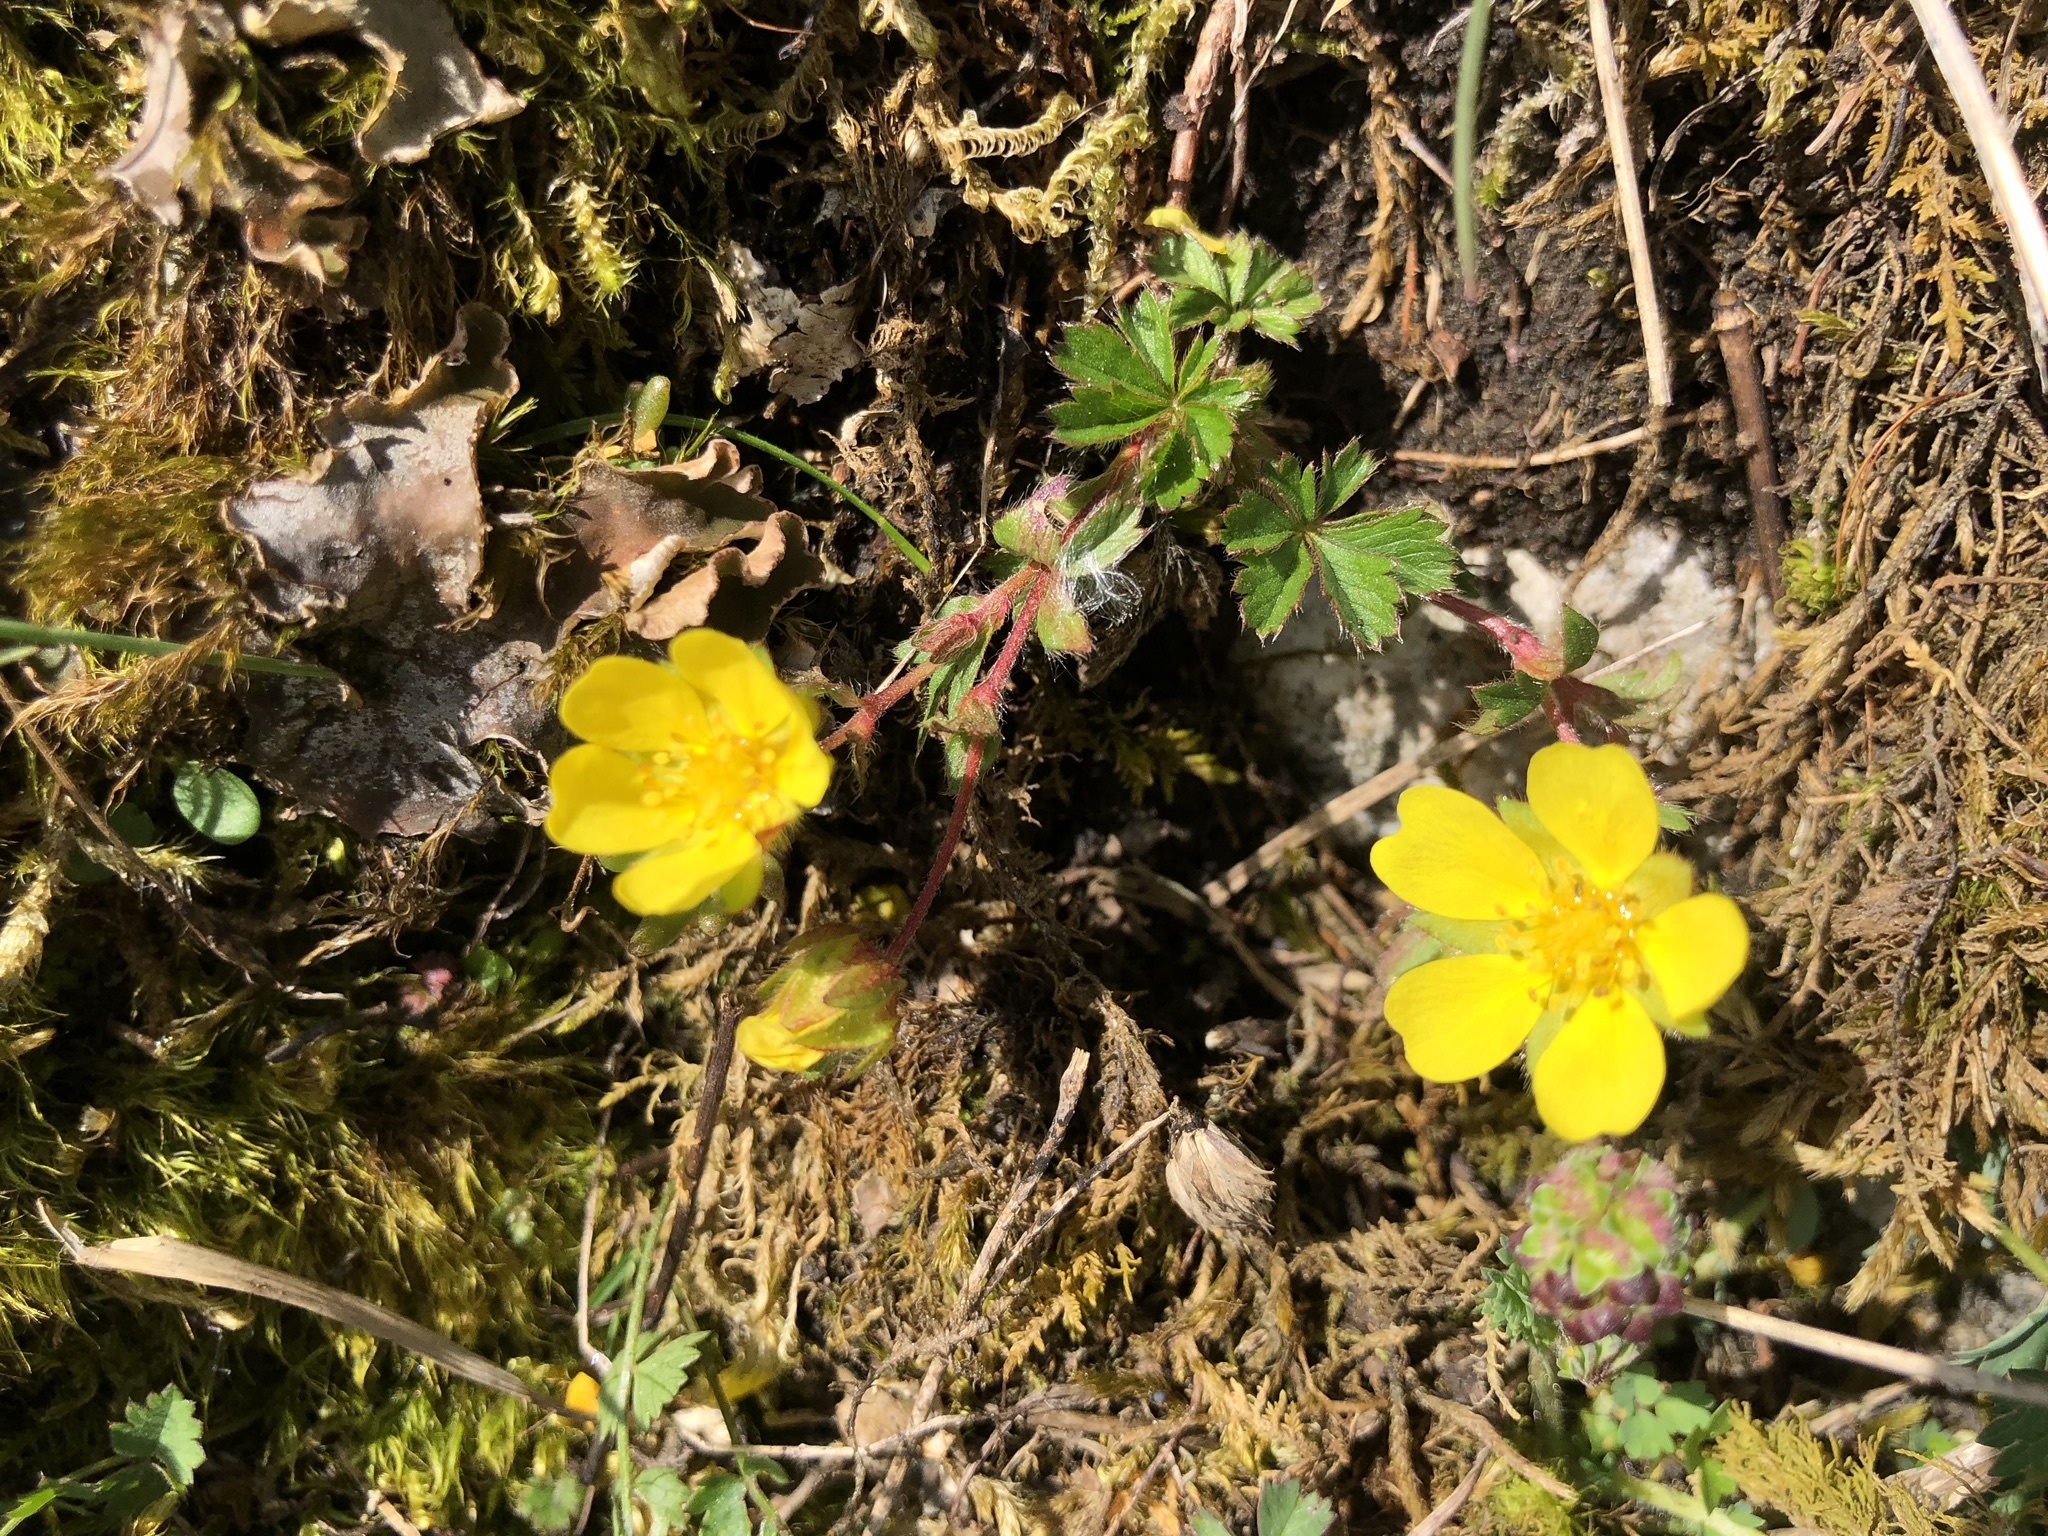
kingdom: Plantae
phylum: Tracheophyta
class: Magnoliopsida
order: Rosales
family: Rosaceae
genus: Potentilla
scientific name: Potentilla crantzii
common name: Alpine cinquefoil
